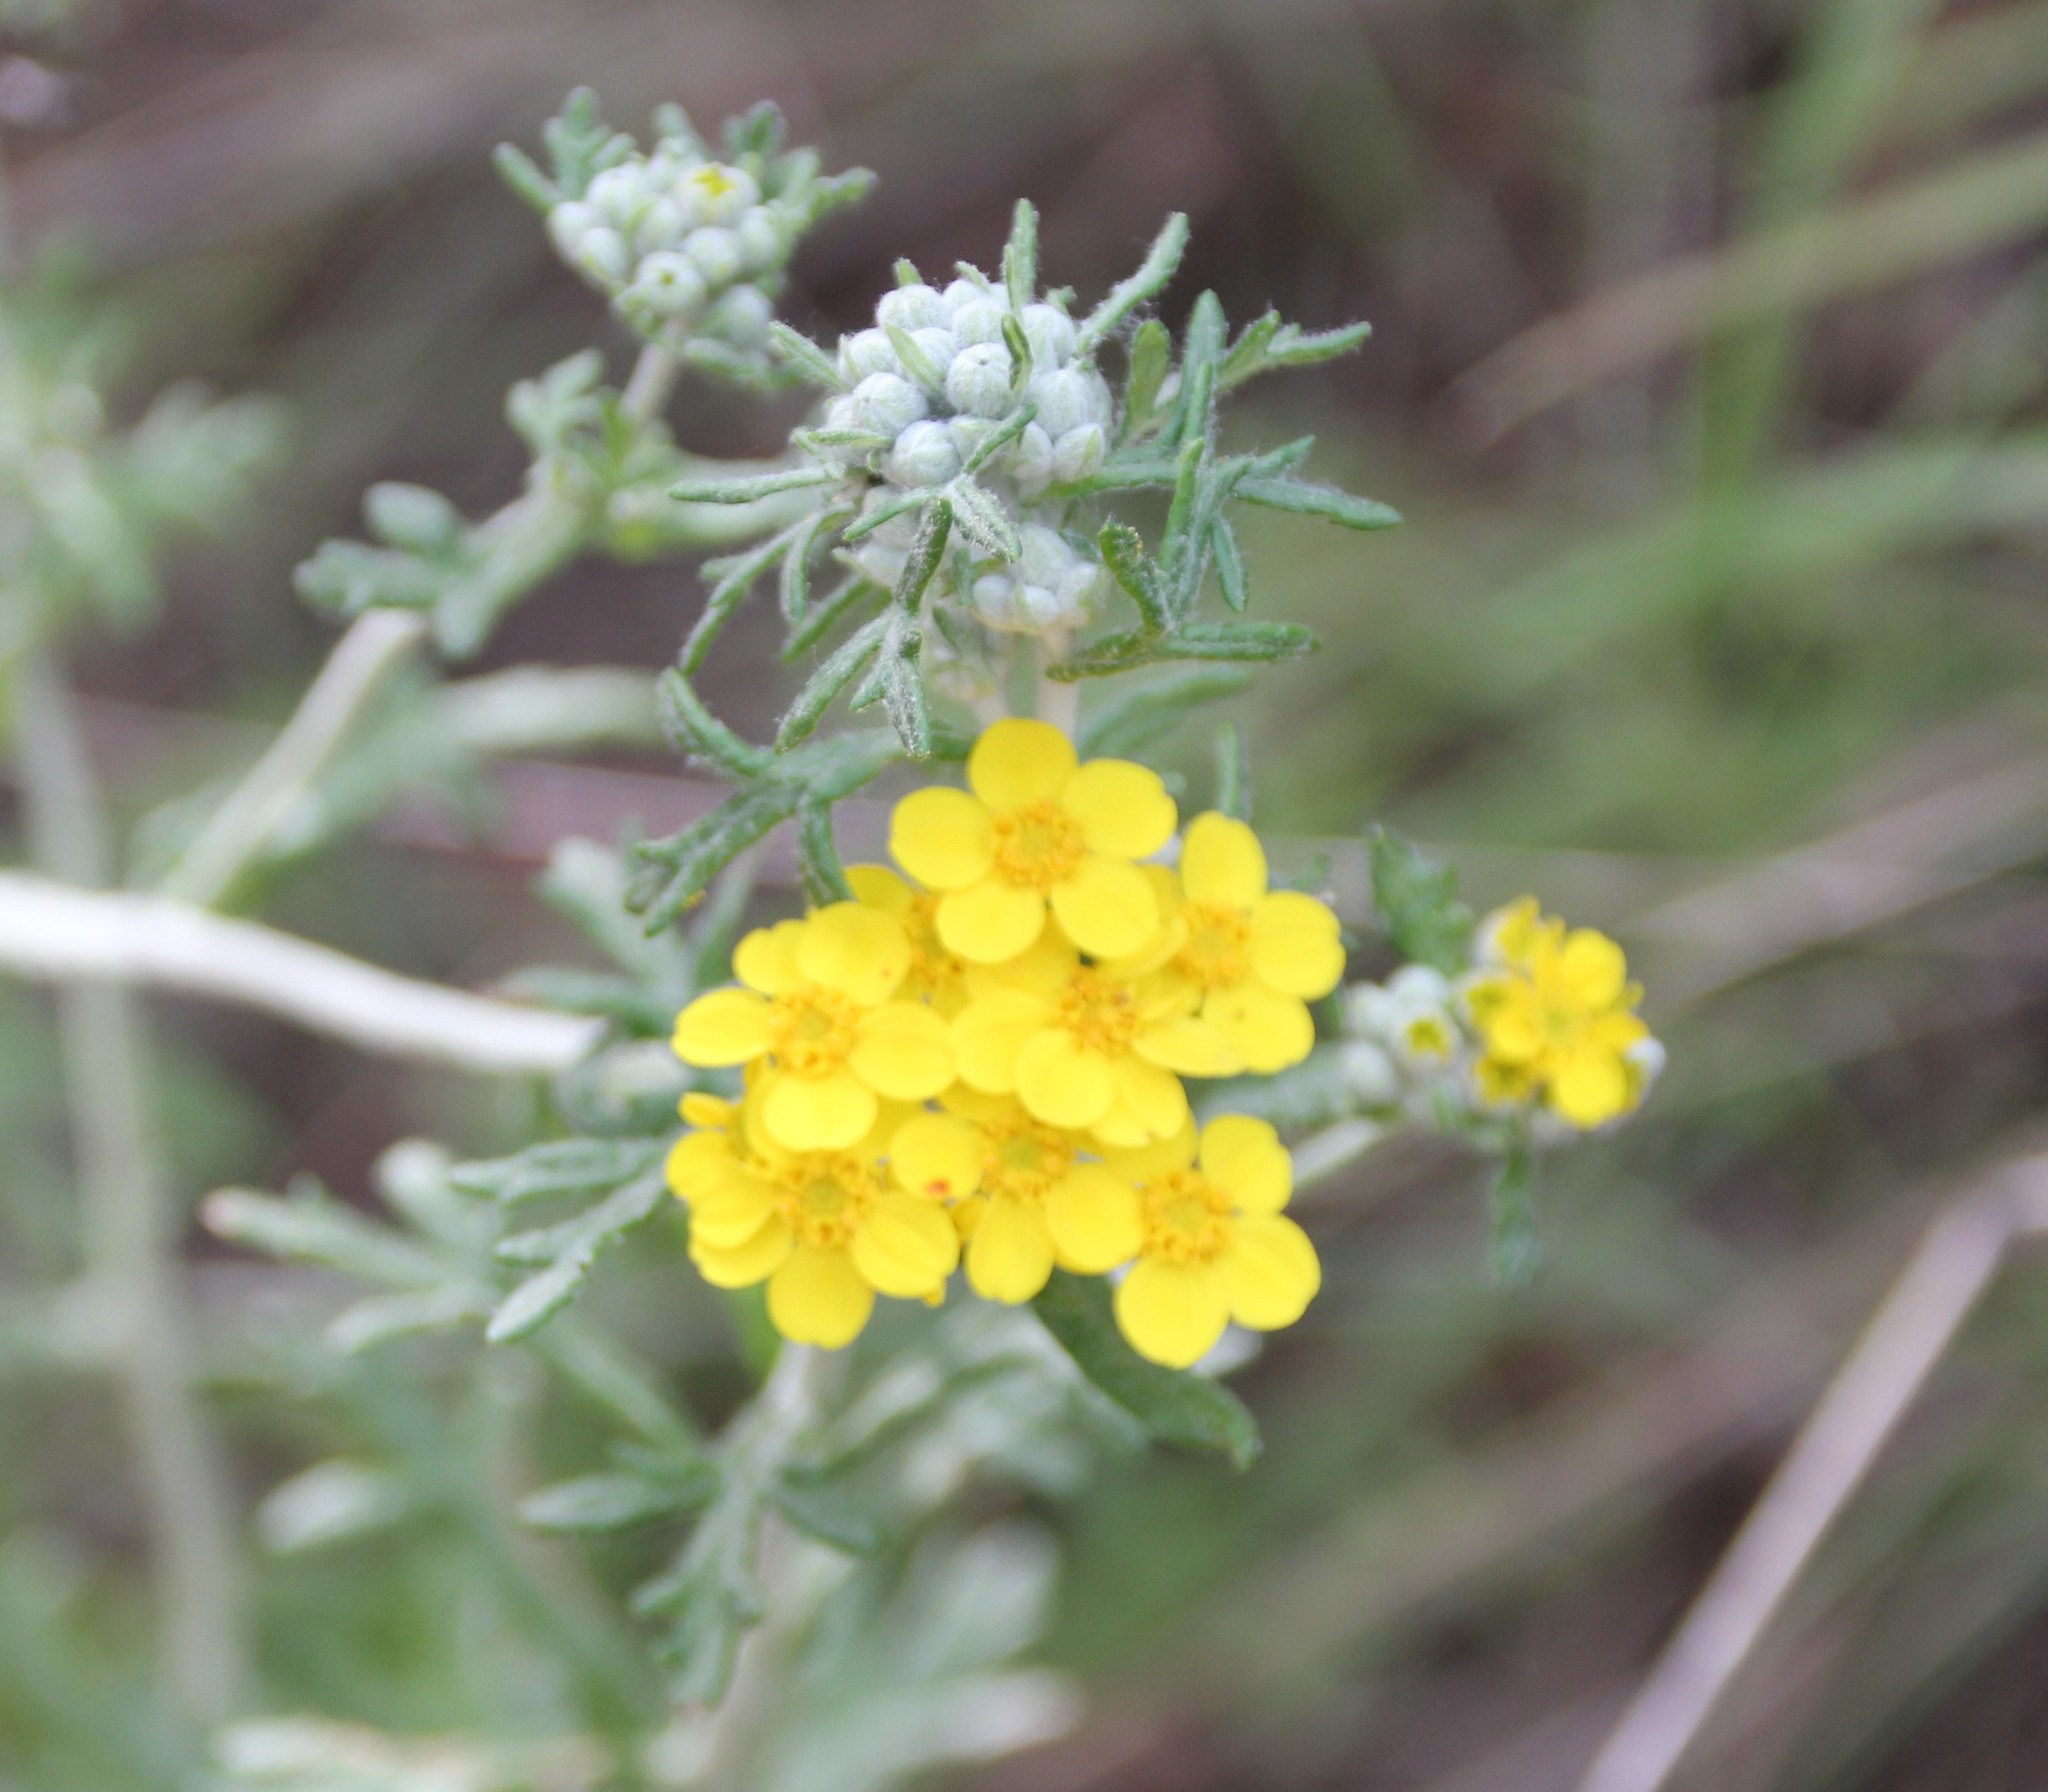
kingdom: Plantae
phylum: Tracheophyta
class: Magnoliopsida
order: Asterales
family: Asteraceae
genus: Eriophyllum
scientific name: Eriophyllum confertiflorum
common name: Golden-yarrow
